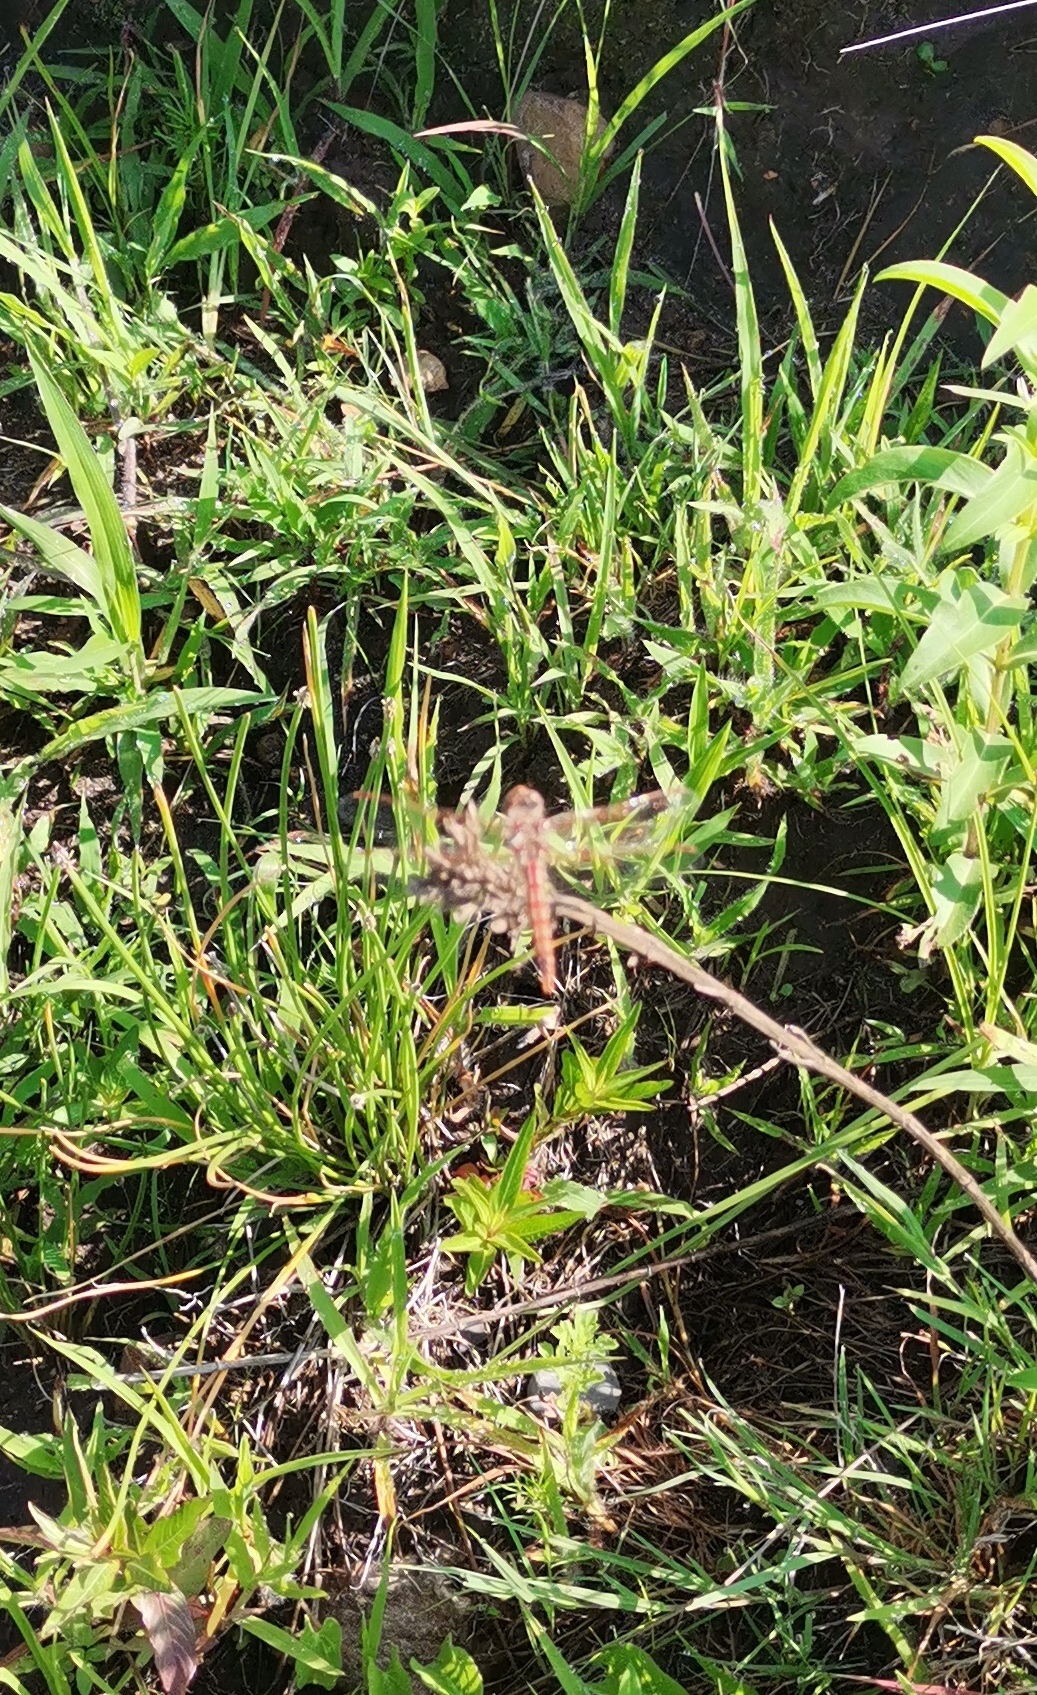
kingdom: Animalia
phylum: Arthropoda
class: Insecta
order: Odonata
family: Libellulidae
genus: Sympetrum
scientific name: Sympetrum corruptum
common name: Variegated meadowhawk
